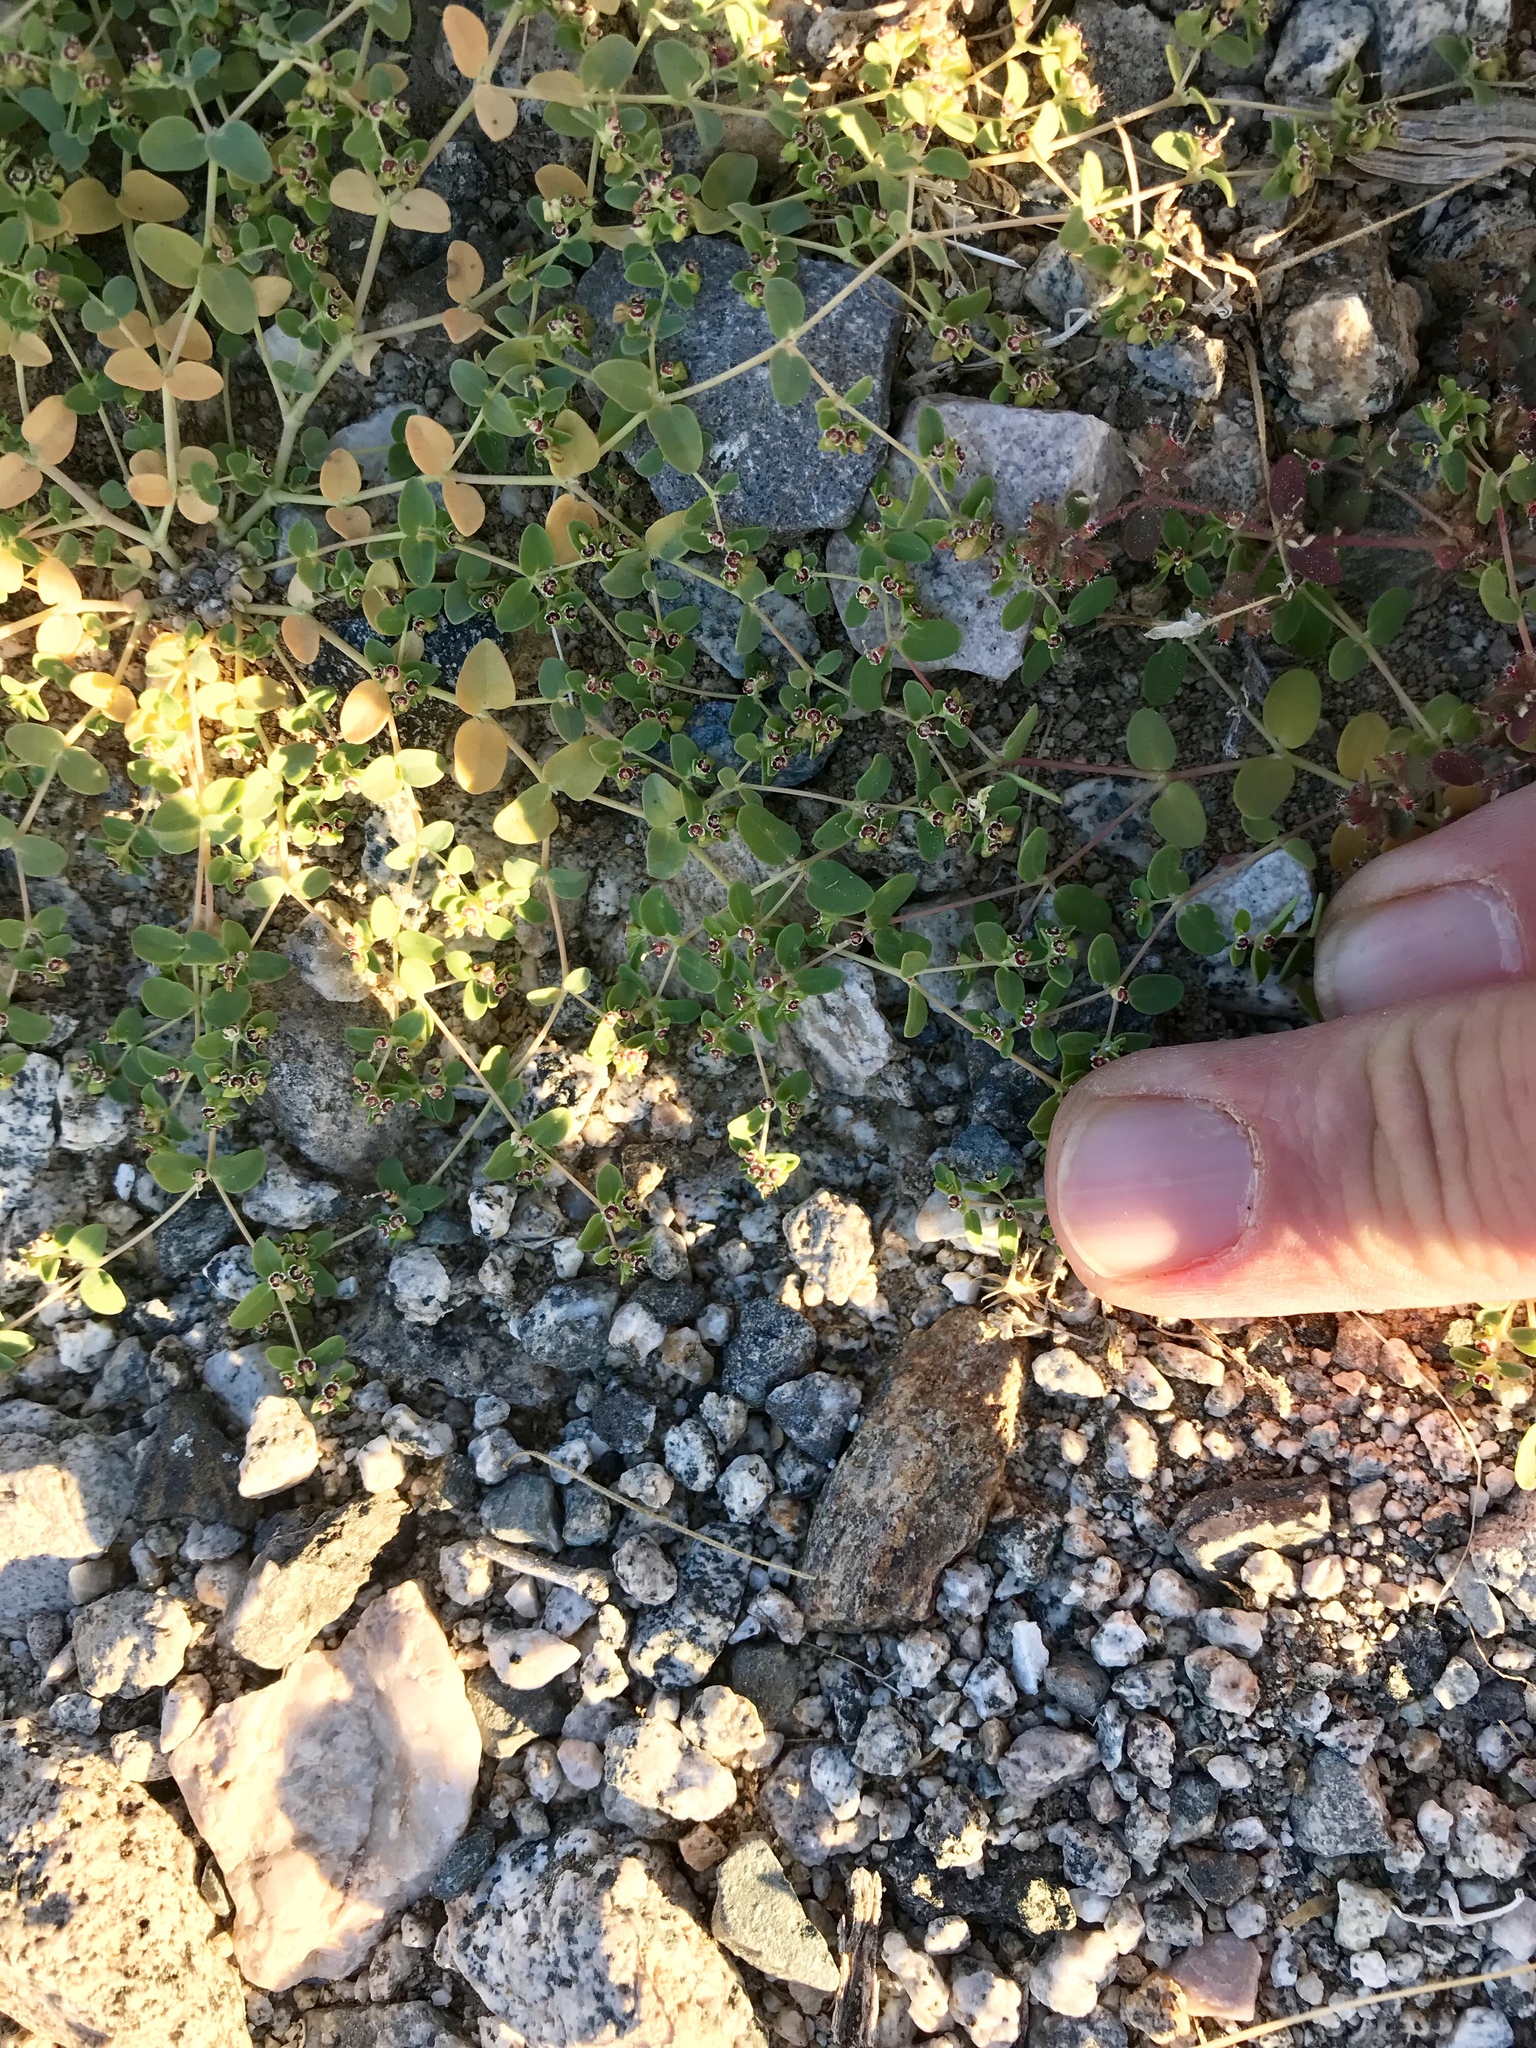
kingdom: Plantae
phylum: Tracheophyta
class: Magnoliopsida
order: Malpighiales
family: Euphorbiaceae
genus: Euphorbia
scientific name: Euphorbia polycarpa
